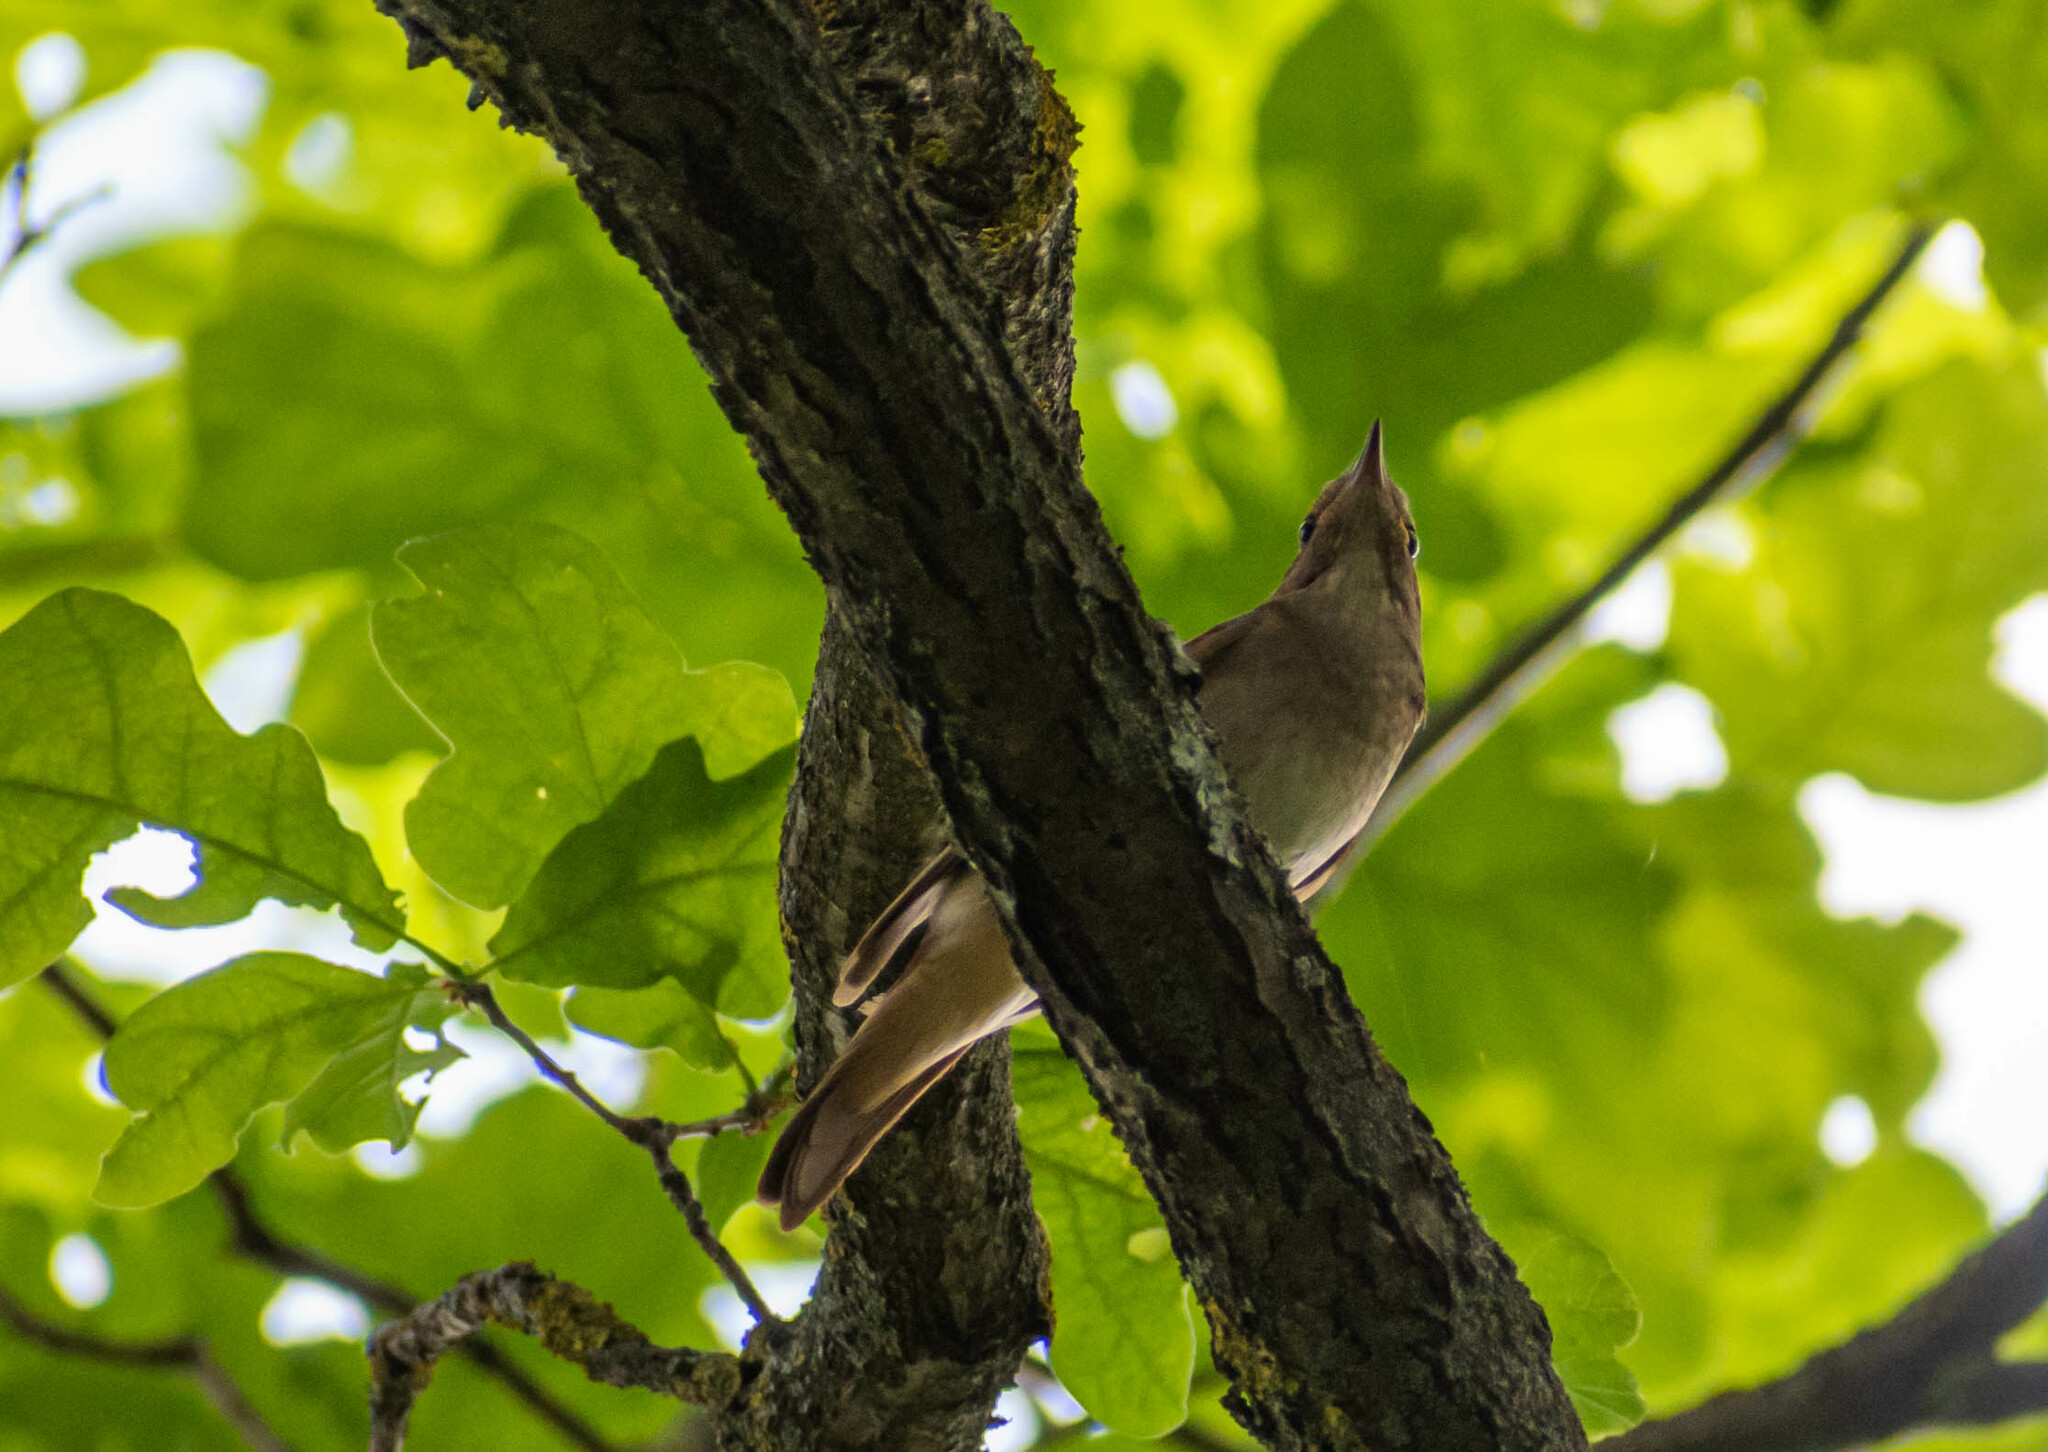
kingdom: Animalia
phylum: Chordata
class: Aves
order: Passeriformes
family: Muscicapidae
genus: Luscinia
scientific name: Luscinia luscinia
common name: Thrush nightingale
